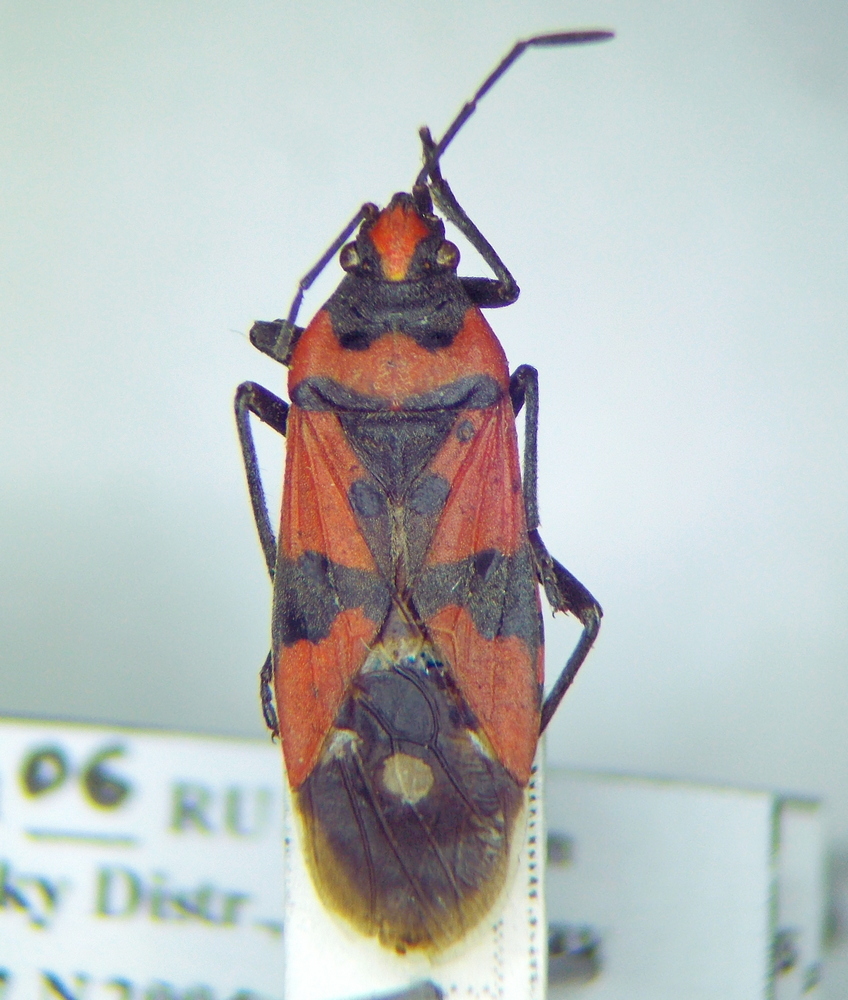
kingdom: Animalia
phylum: Arthropoda
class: Insecta
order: Hemiptera
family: Lygaeidae
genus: Lygaeus
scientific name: Lygaeus equestris
